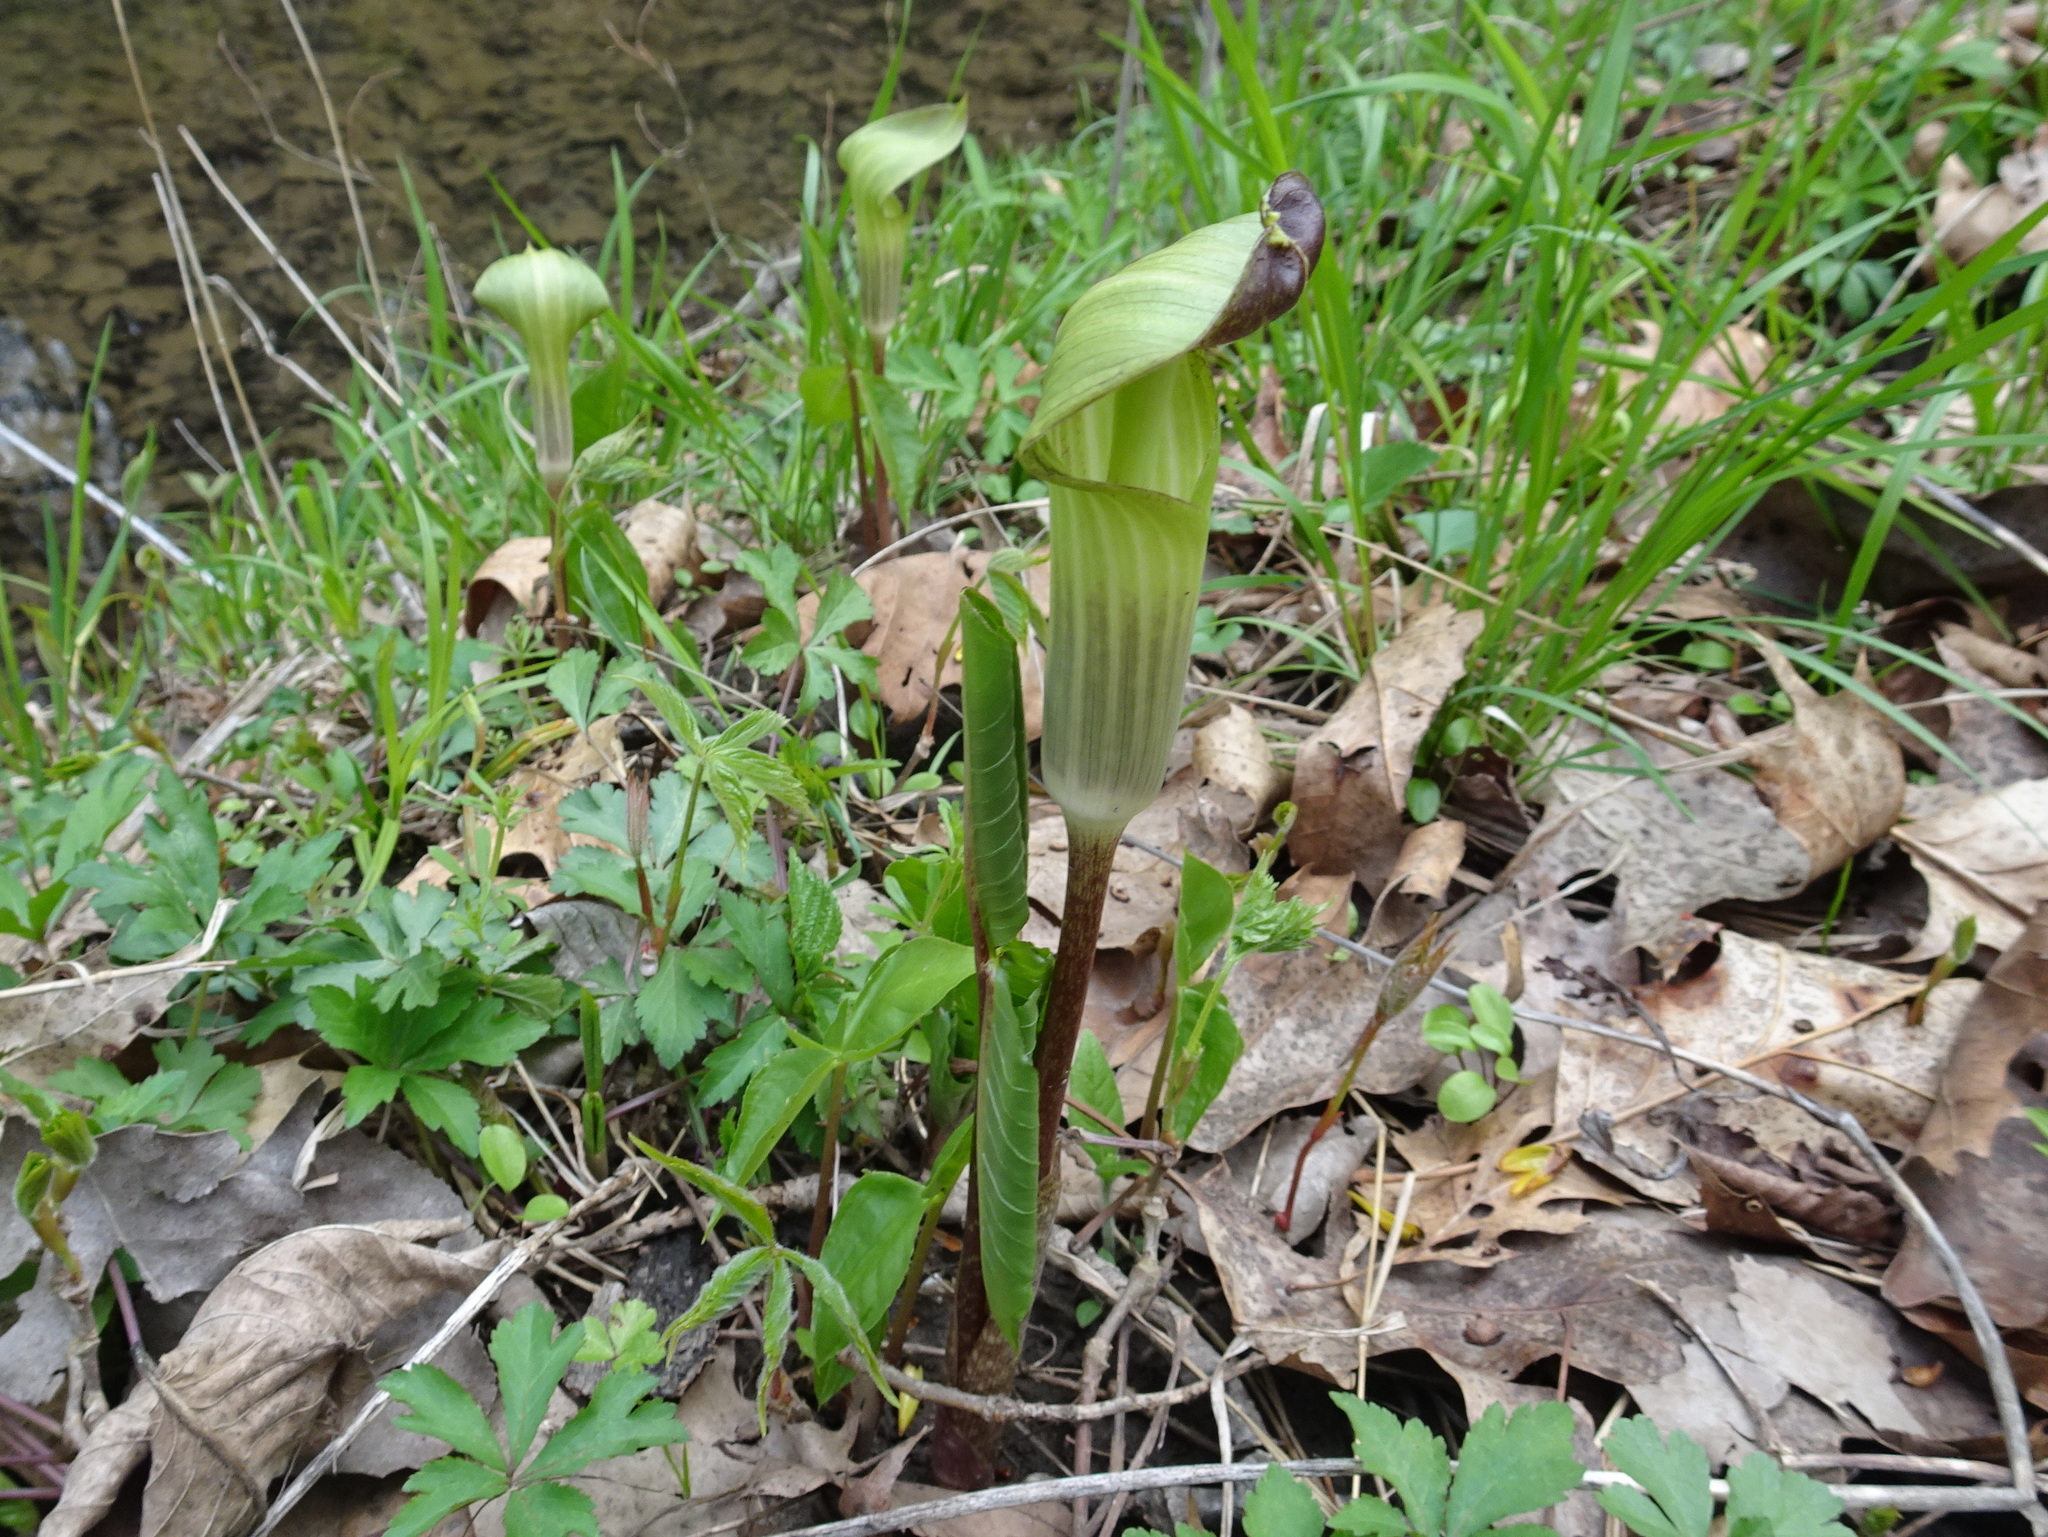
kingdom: Plantae
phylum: Tracheophyta
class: Liliopsida
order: Alismatales
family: Araceae
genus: Arisaema
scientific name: Arisaema triphyllum
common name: Jack-in-the-pulpit
